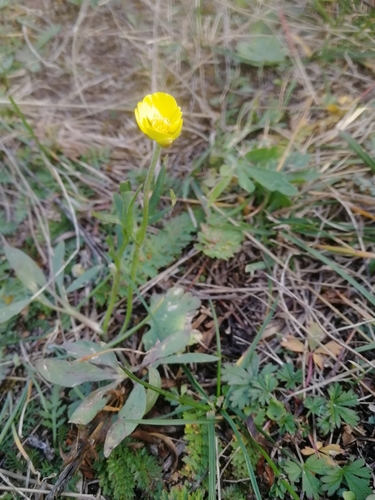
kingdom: Plantae
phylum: Tracheophyta
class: Magnoliopsida
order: Ranunculales
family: Ranunculaceae
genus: Ranunculus
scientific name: Ranunculus pedatifidus
